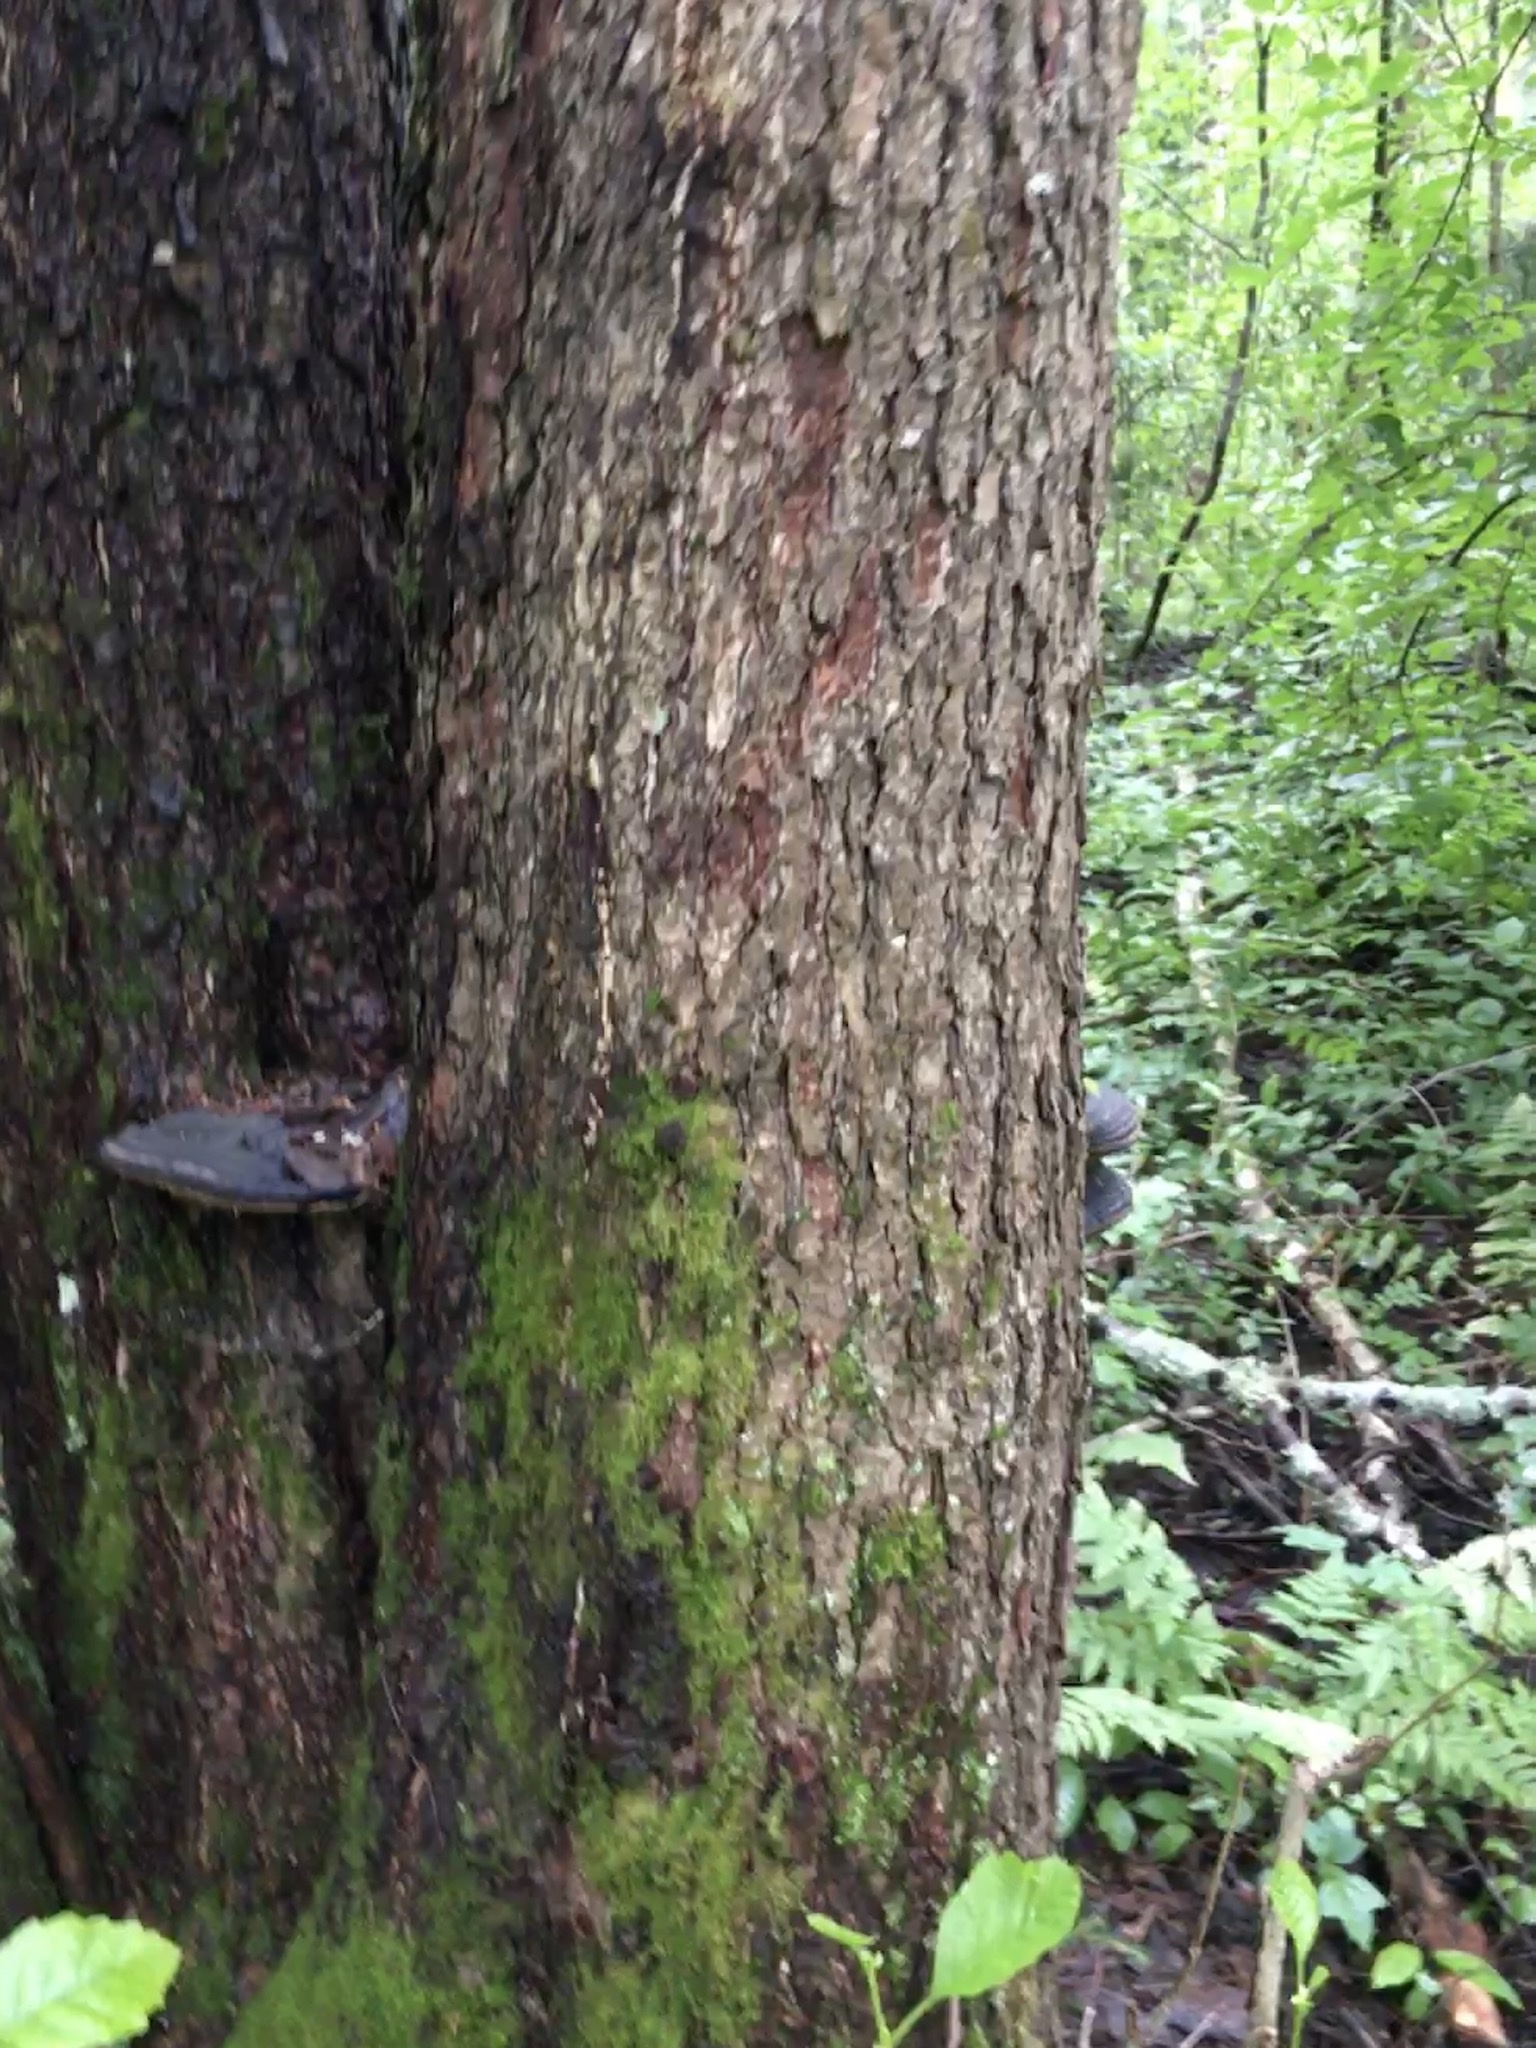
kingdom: Plantae
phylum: Tracheophyta
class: Magnoliopsida
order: Fagales
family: Betulaceae
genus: Alnus
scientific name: Alnus glutinosa
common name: Black alder
